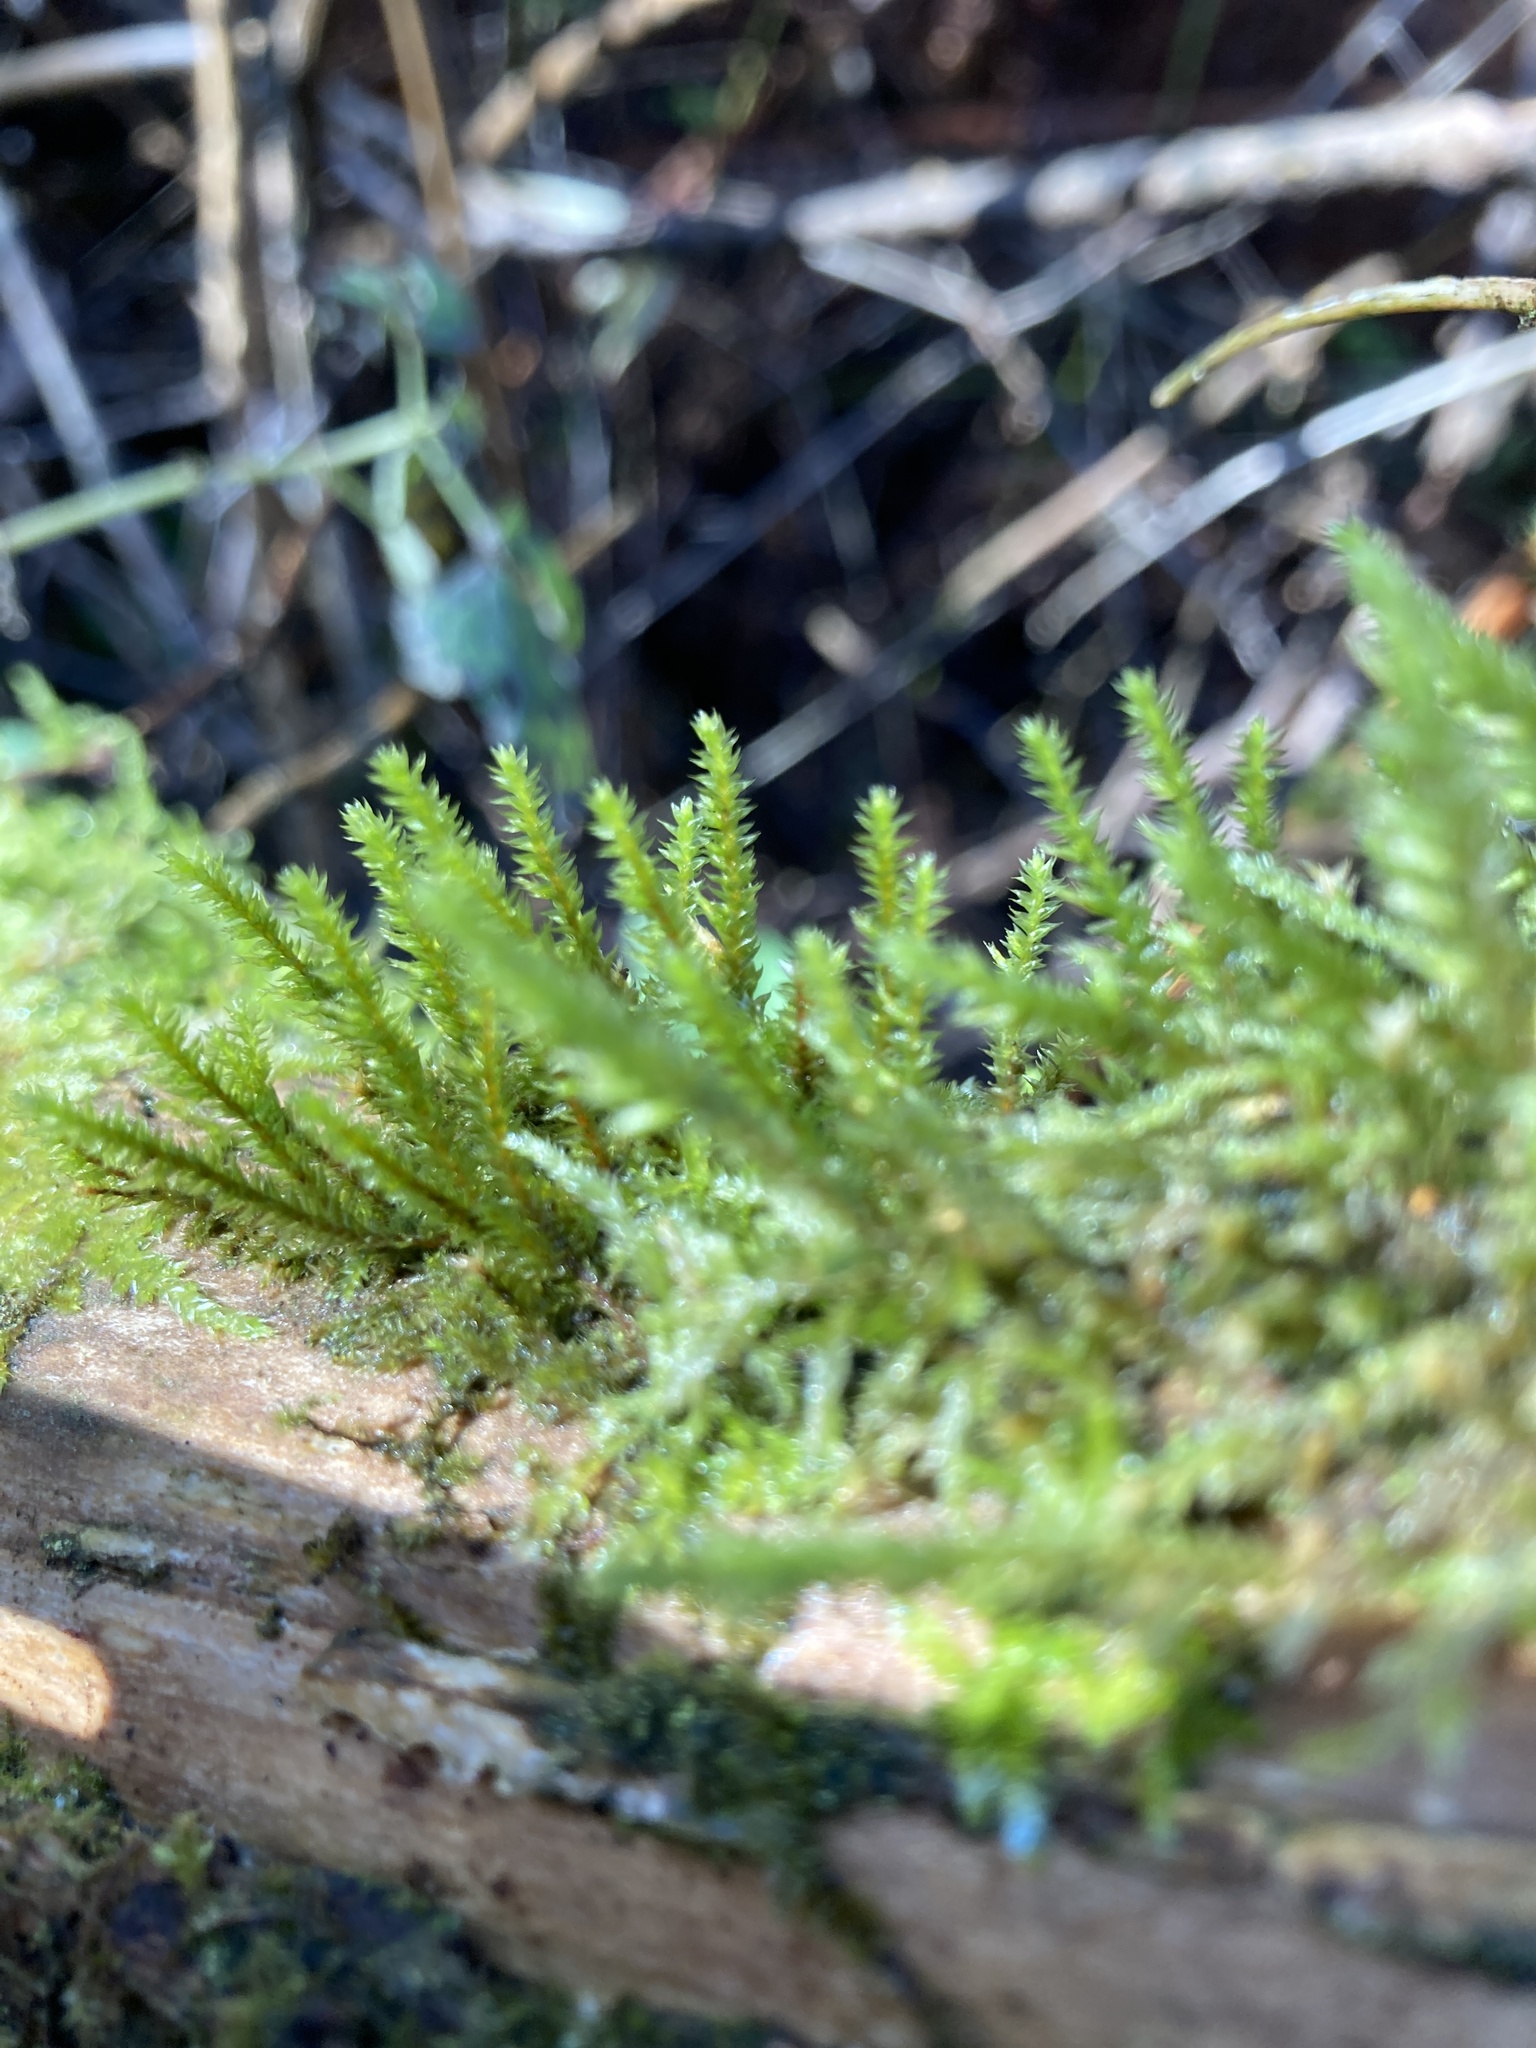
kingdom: Plantae
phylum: Bryophyta
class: Bryopsida
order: Hypnales
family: Cryphaeaceae
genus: Cryphaea
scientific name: Cryphaea heteromalla
